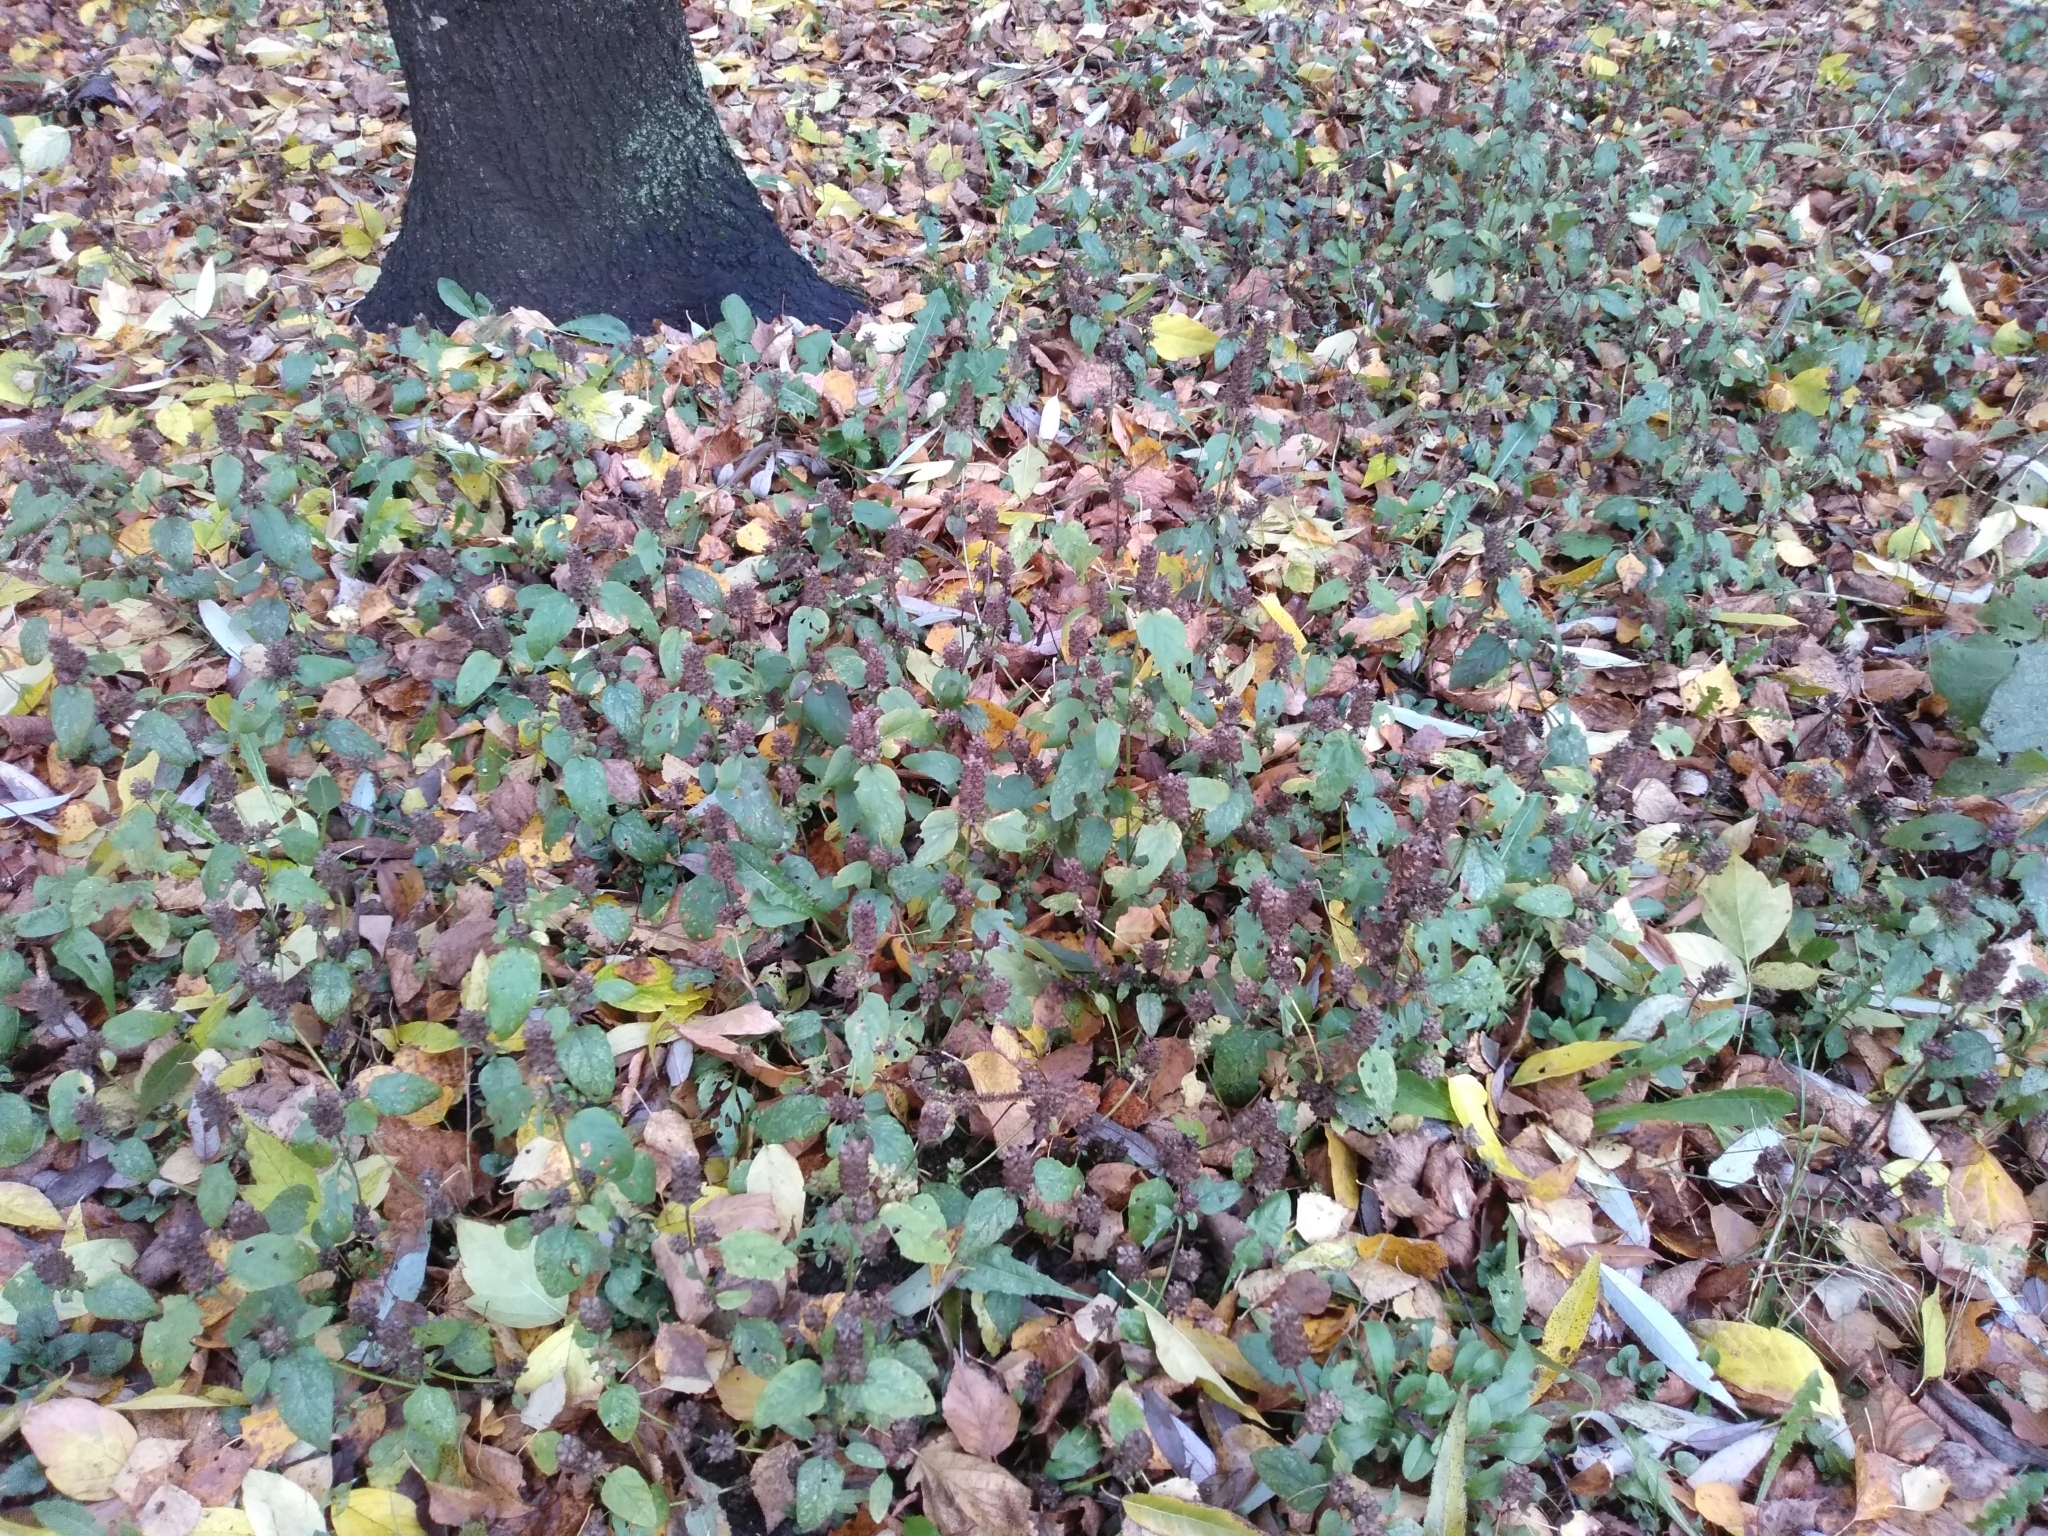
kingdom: Plantae
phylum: Tracheophyta
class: Magnoliopsida
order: Lamiales
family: Lamiaceae
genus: Prunella
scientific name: Prunella vulgaris
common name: Heal-all
